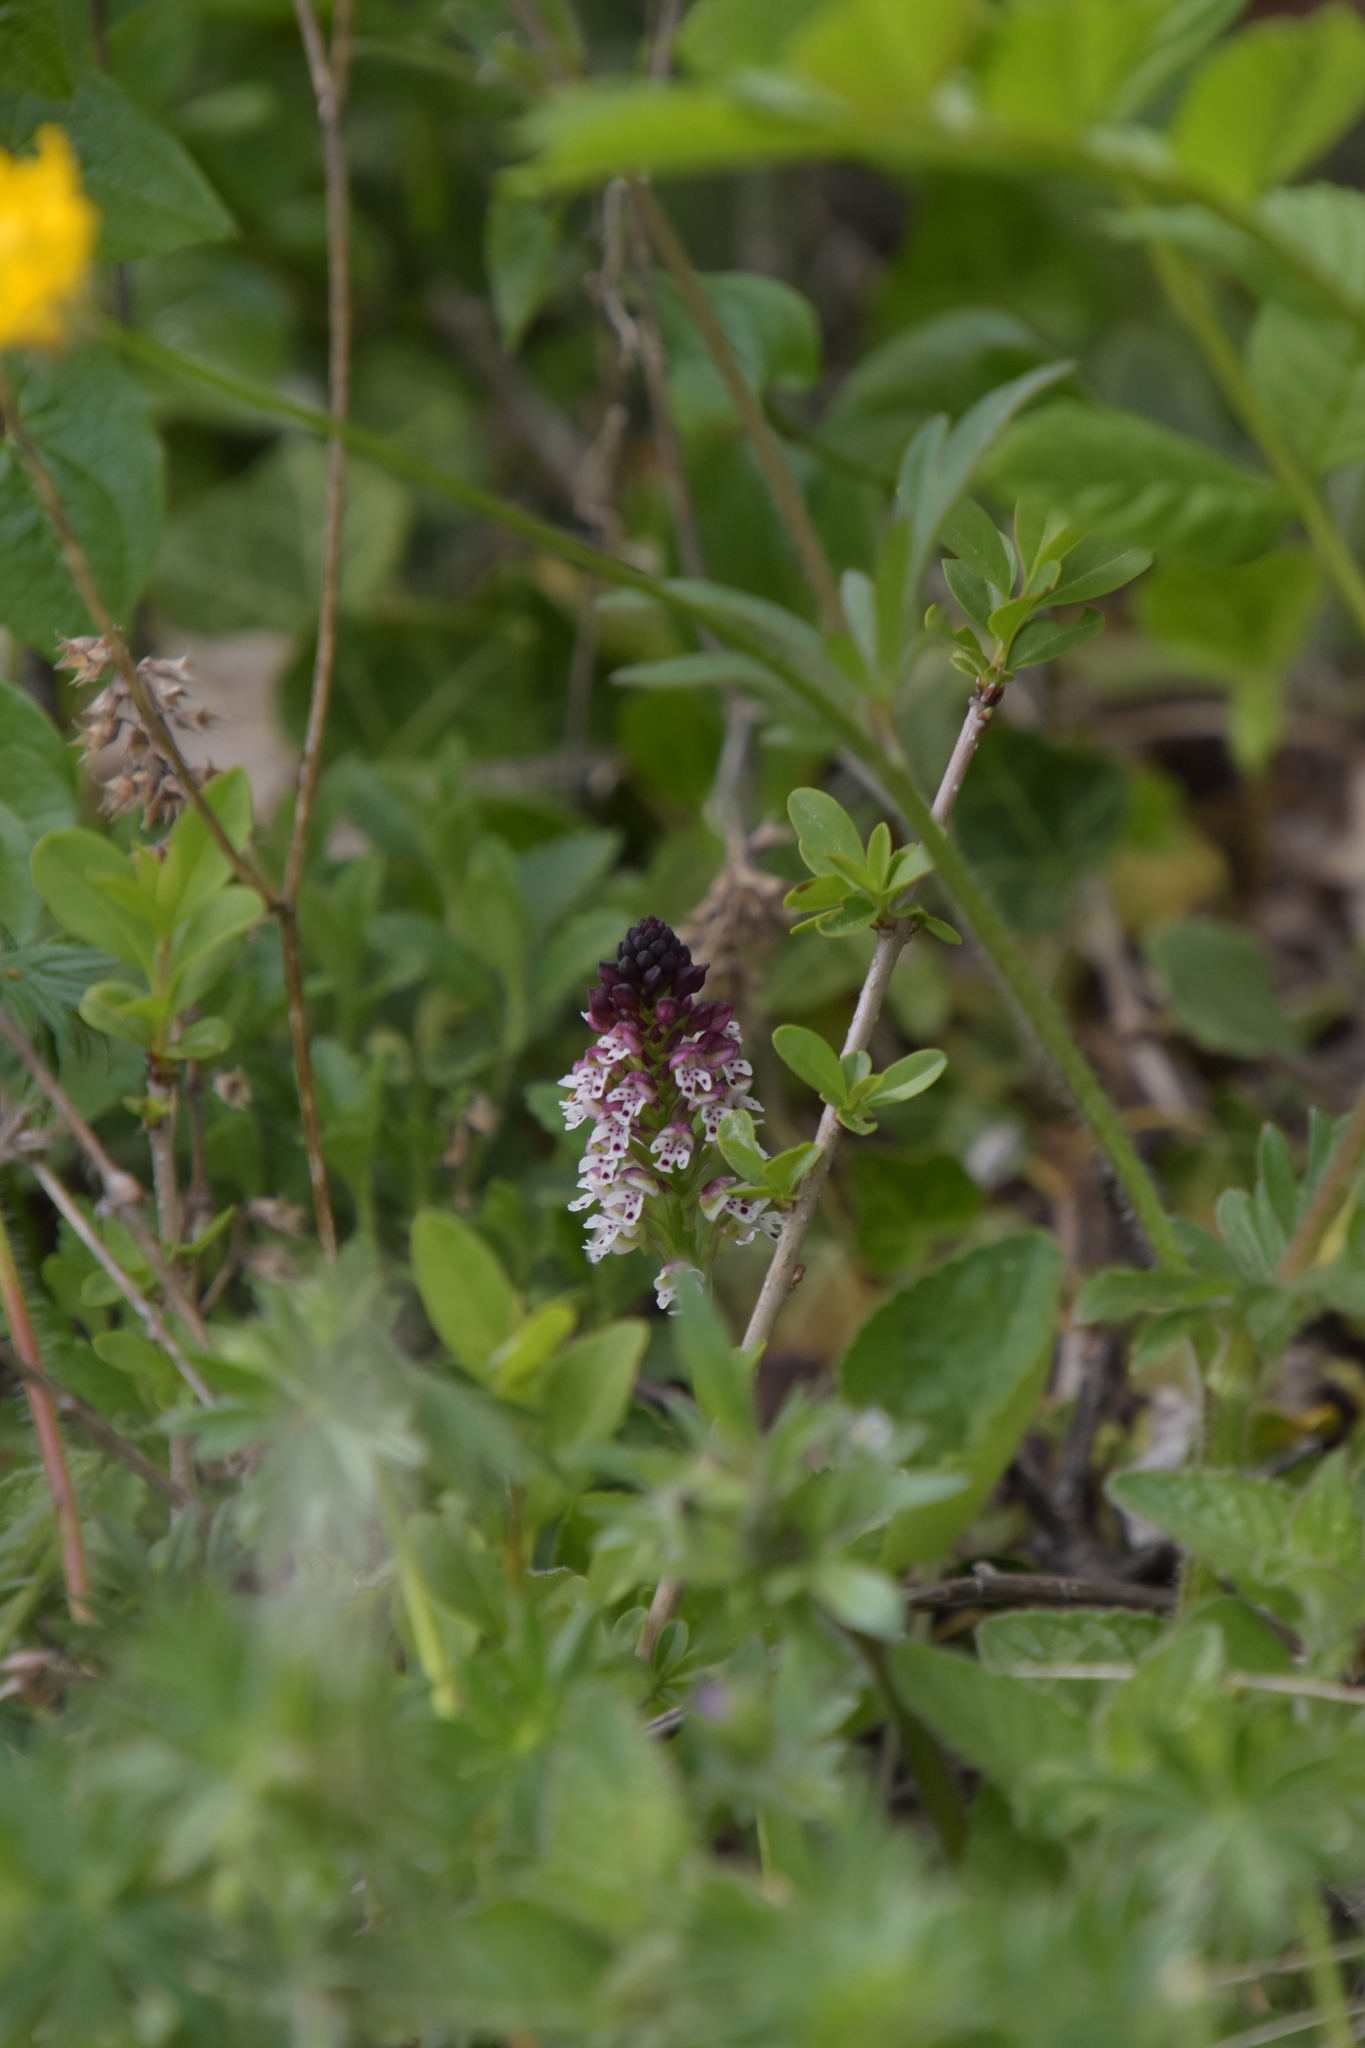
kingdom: Plantae
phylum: Tracheophyta
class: Liliopsida
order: Asparagales
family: Orchidaceae
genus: Neotinea
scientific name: Neotinea ustulata
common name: Burnt orchid
